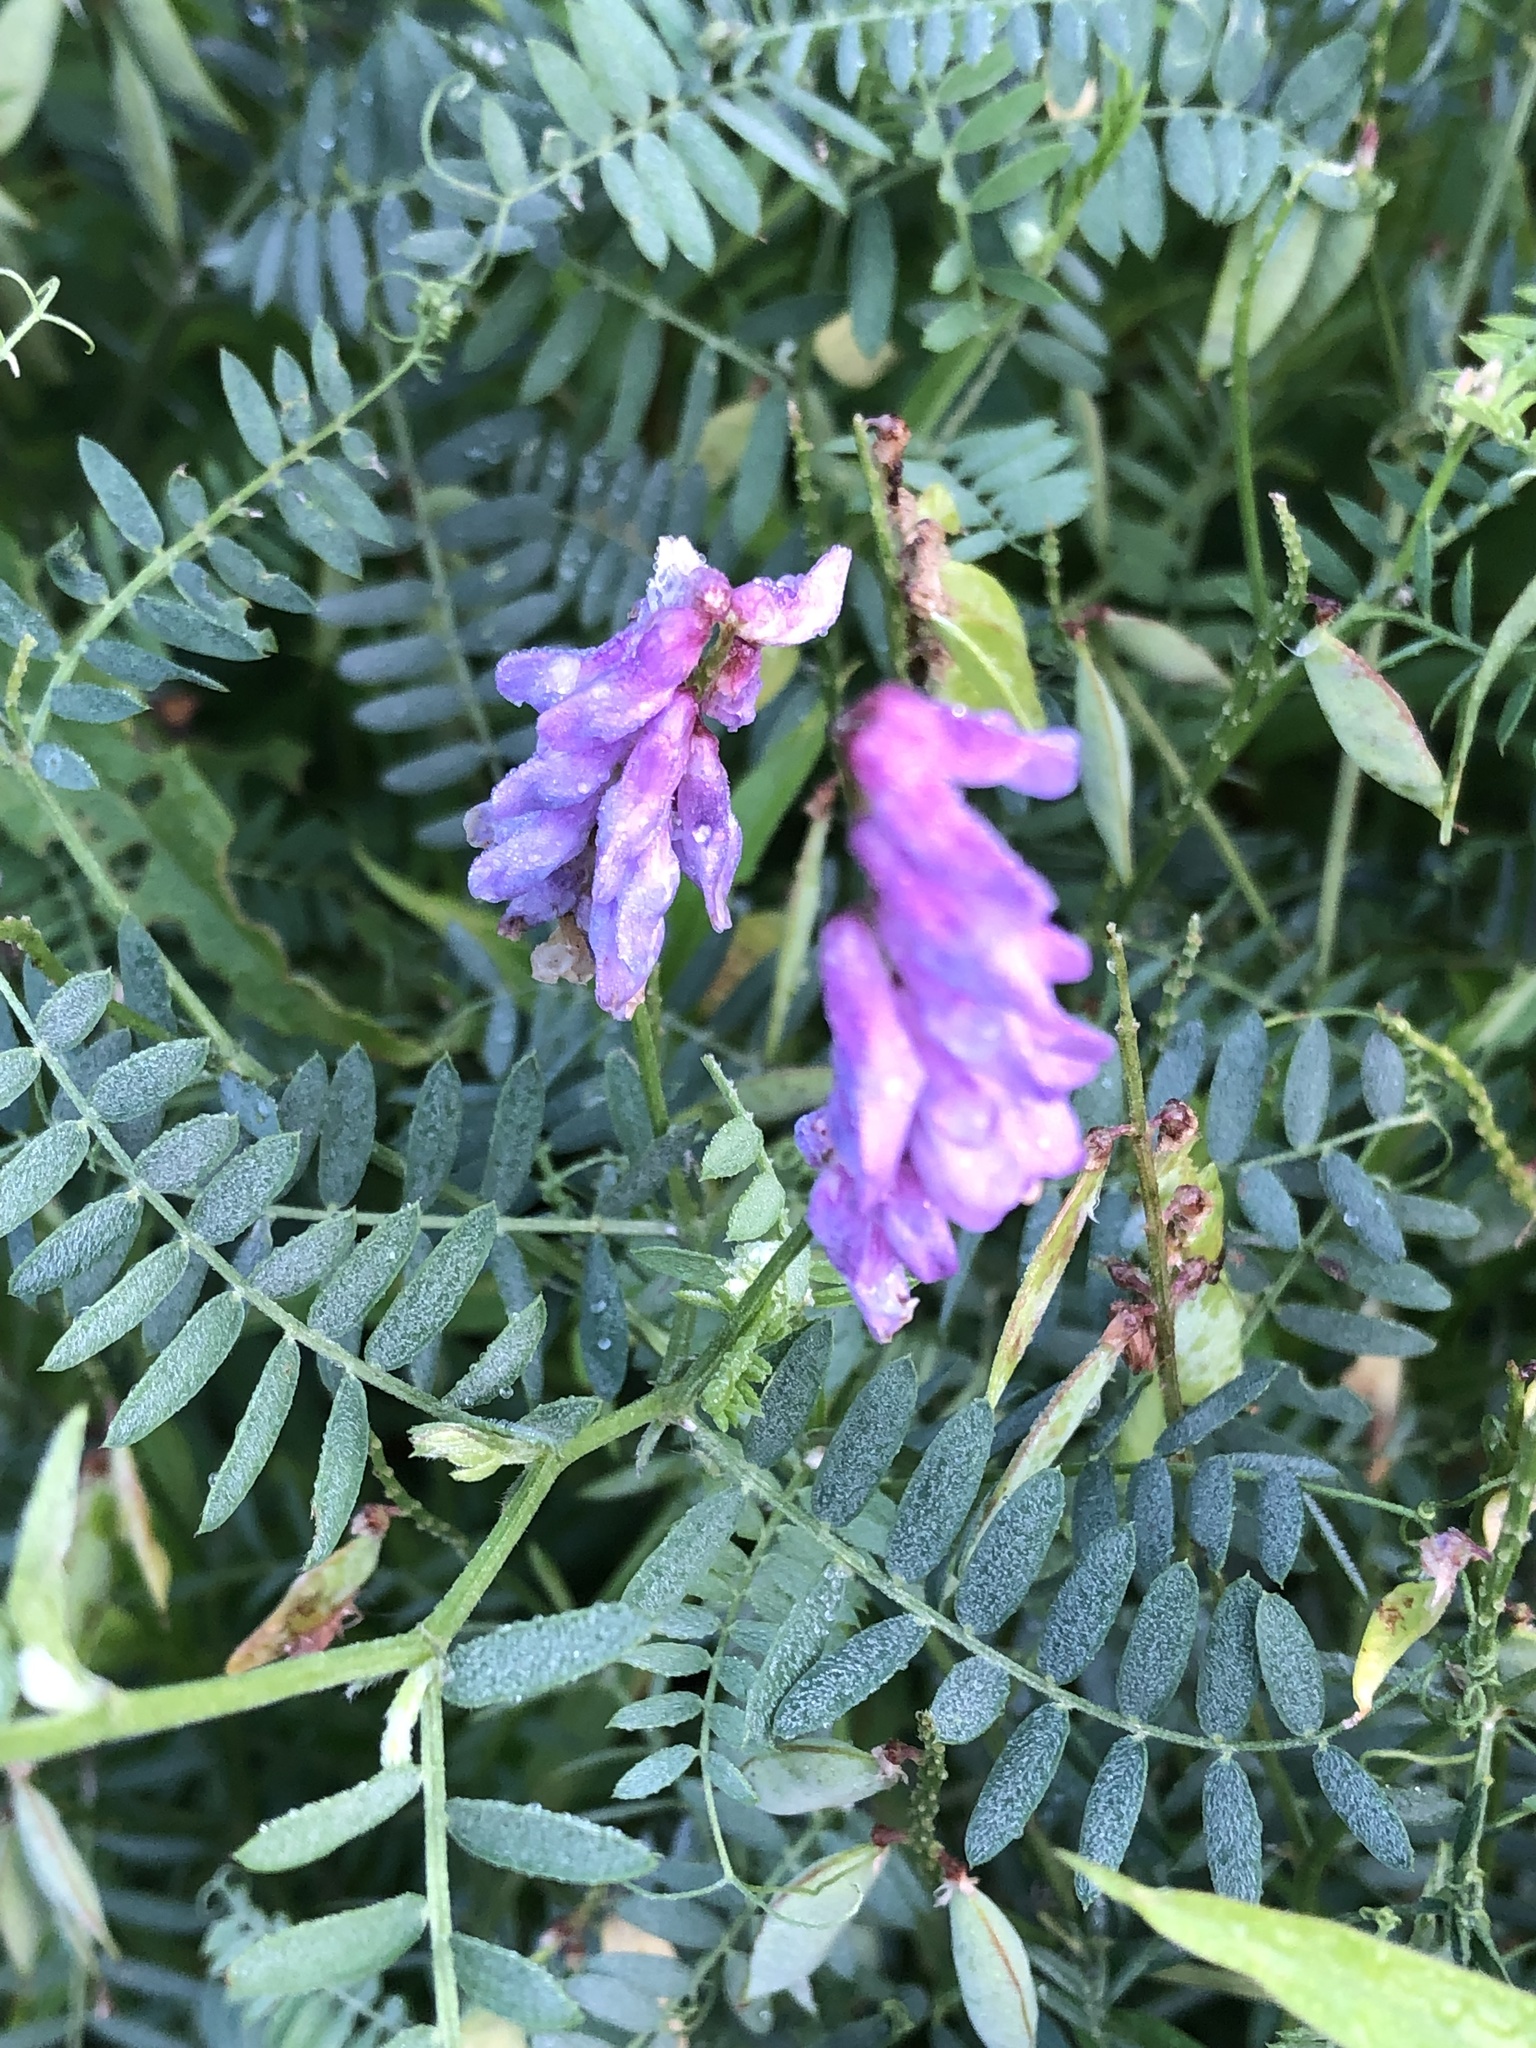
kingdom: Plantae
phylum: Tracheophyta
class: Magnoliopsida
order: Fabales
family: Fabaceae
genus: Vicia
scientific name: Vicia cracca
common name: Bird vetch
